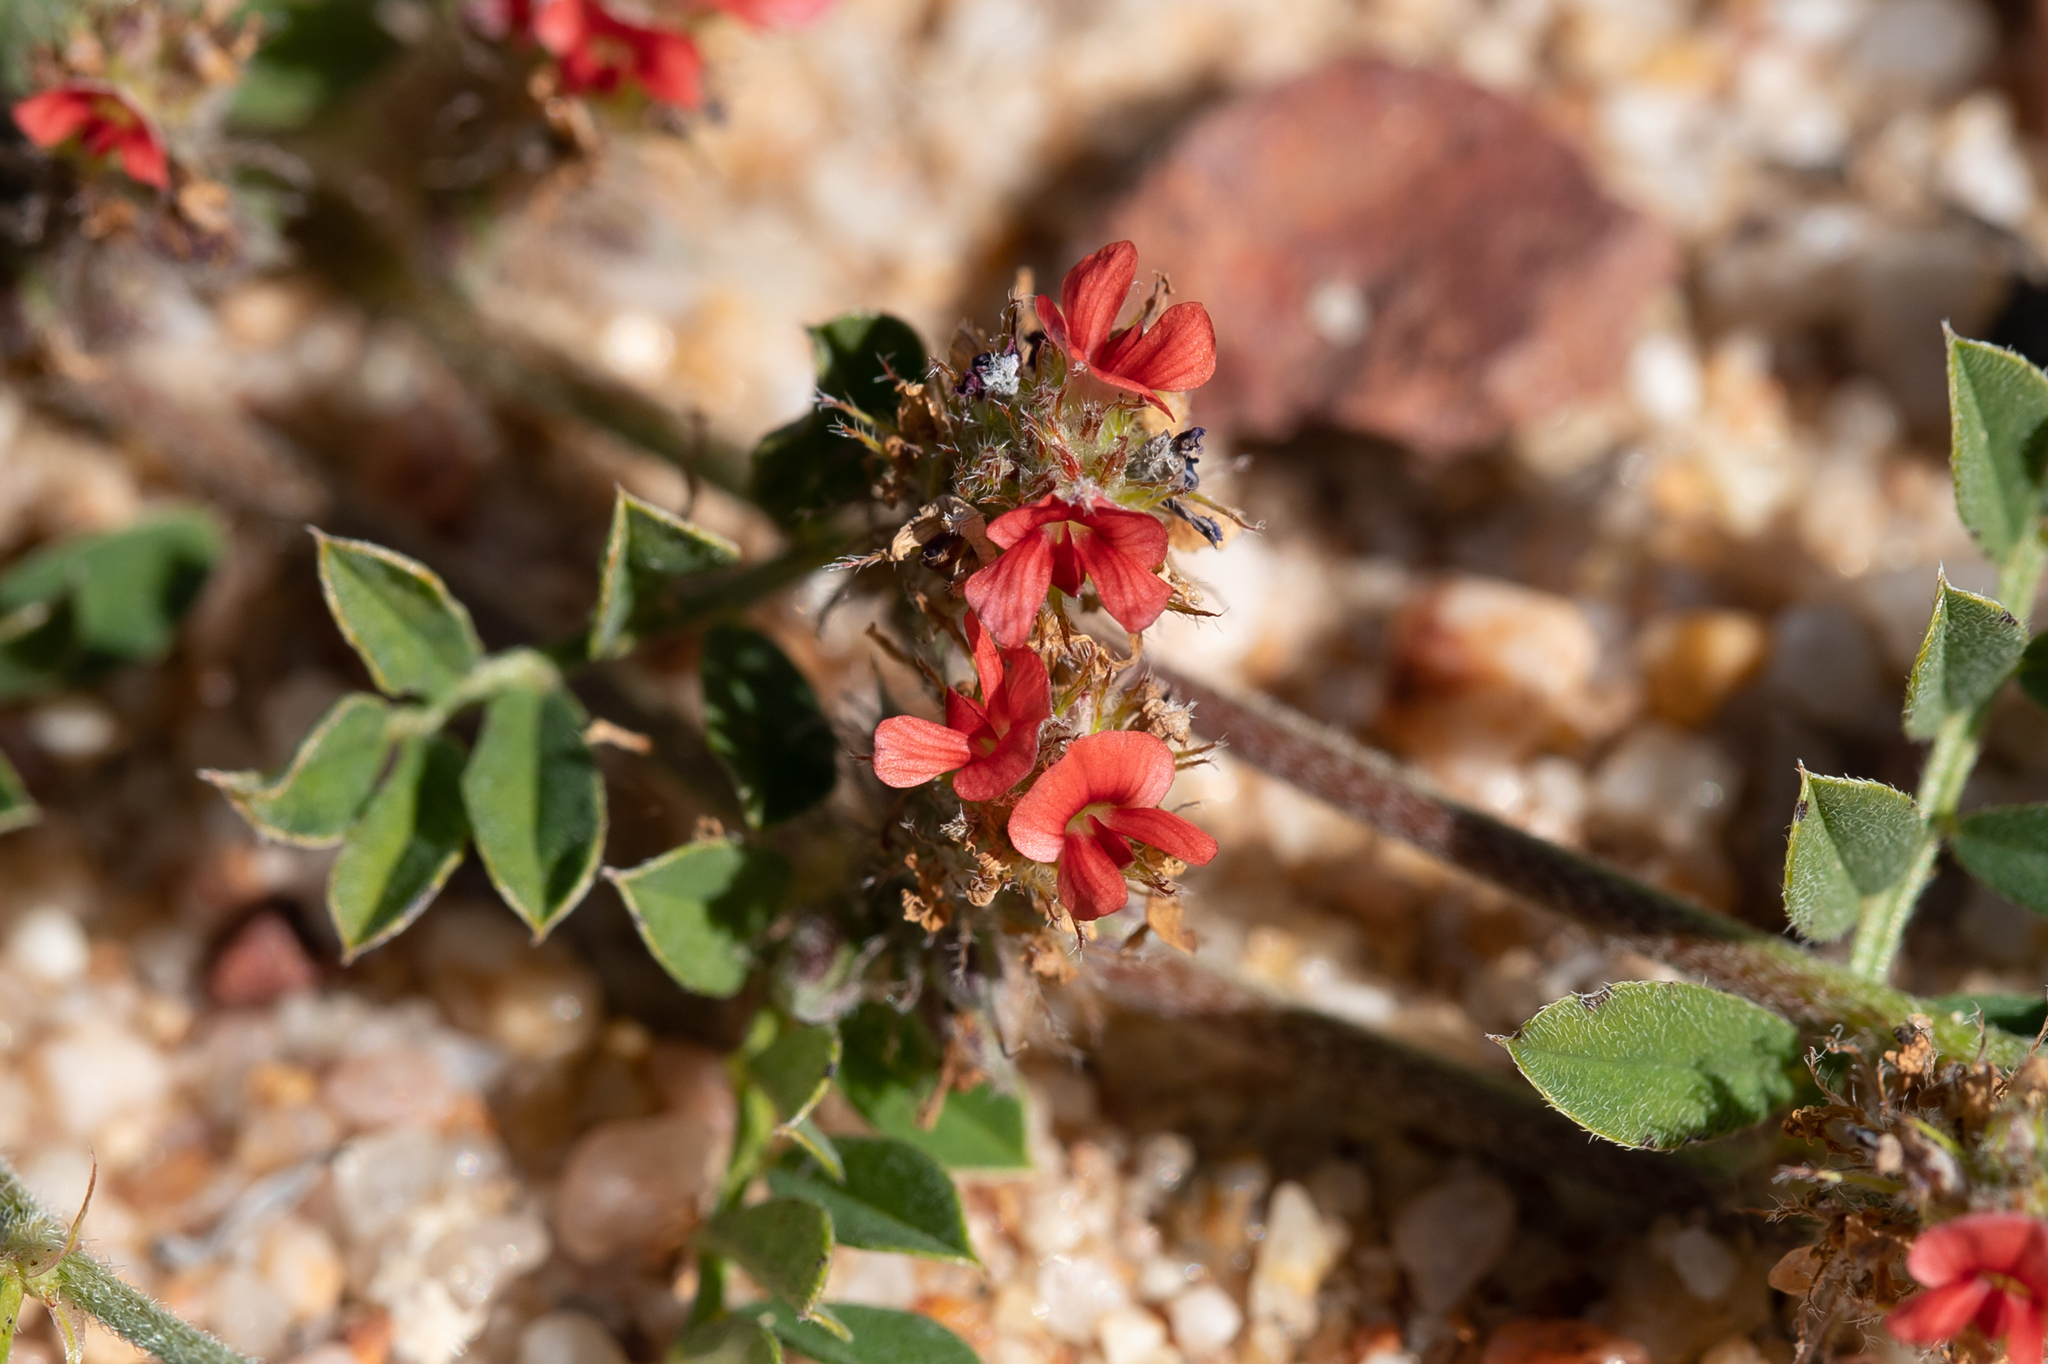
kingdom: Plantae
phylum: Tracheophyta
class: Magnoliopsida
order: Fabales
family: Fabaceae
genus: Indigofera
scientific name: Indigofera linnaei
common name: Nine-leaf indigo
